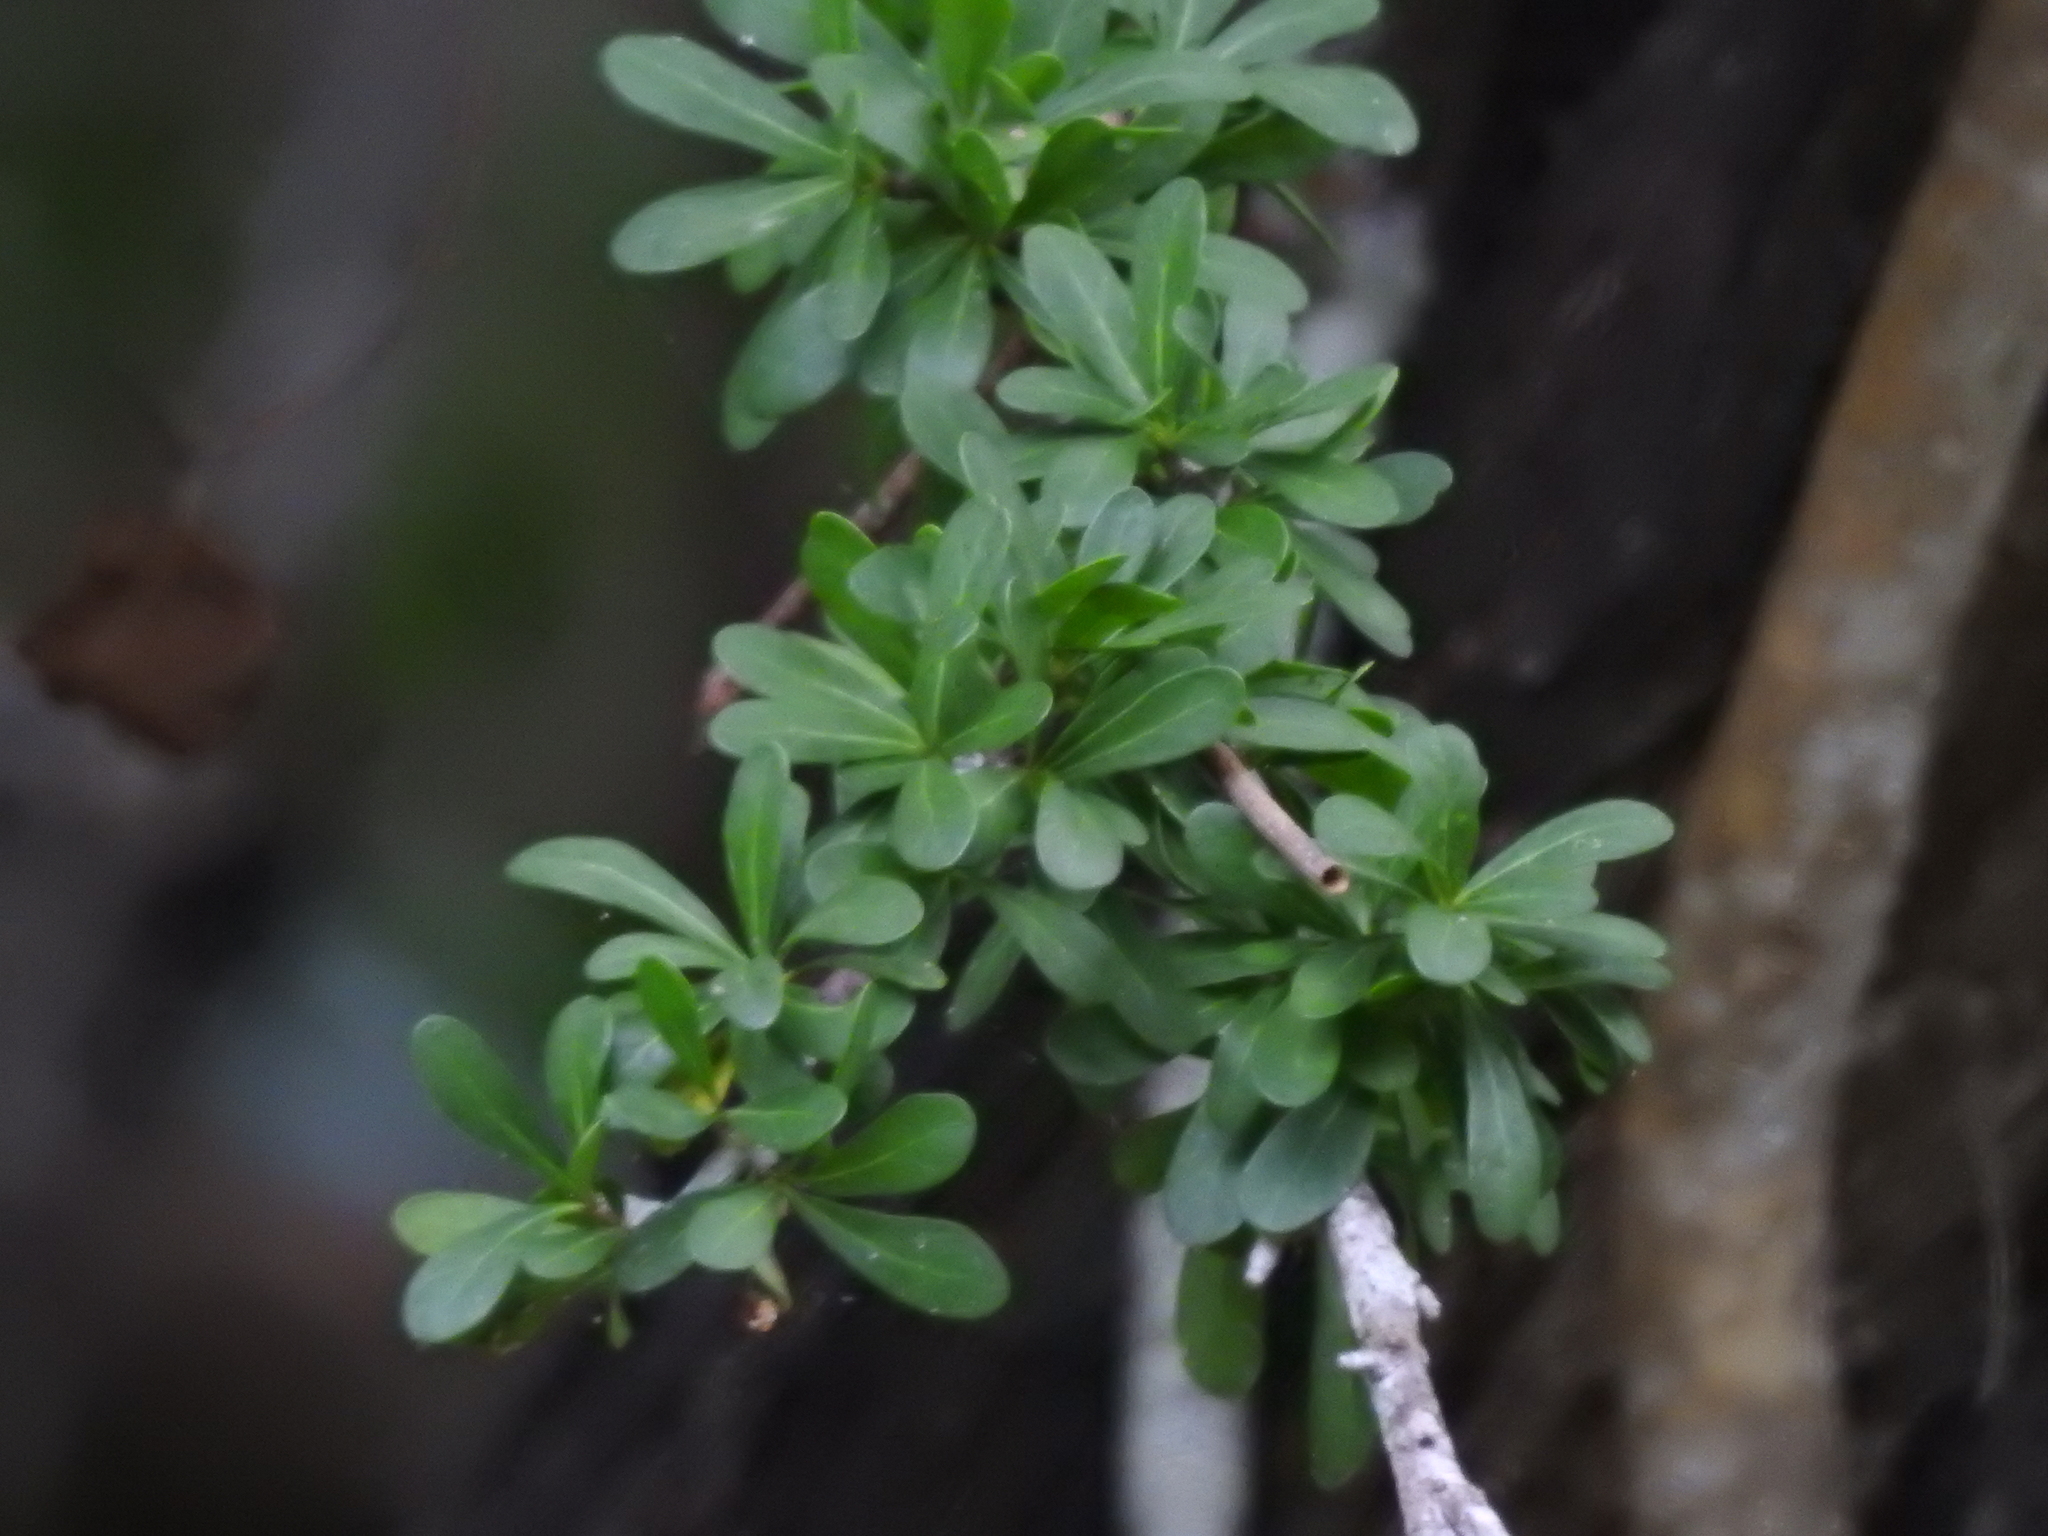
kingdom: Plantae
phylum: Tracheophyta
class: Magnoliopsida
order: Ericales
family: Sapotaceae
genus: Sideroxylon
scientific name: Sideroxylon celastrinum
